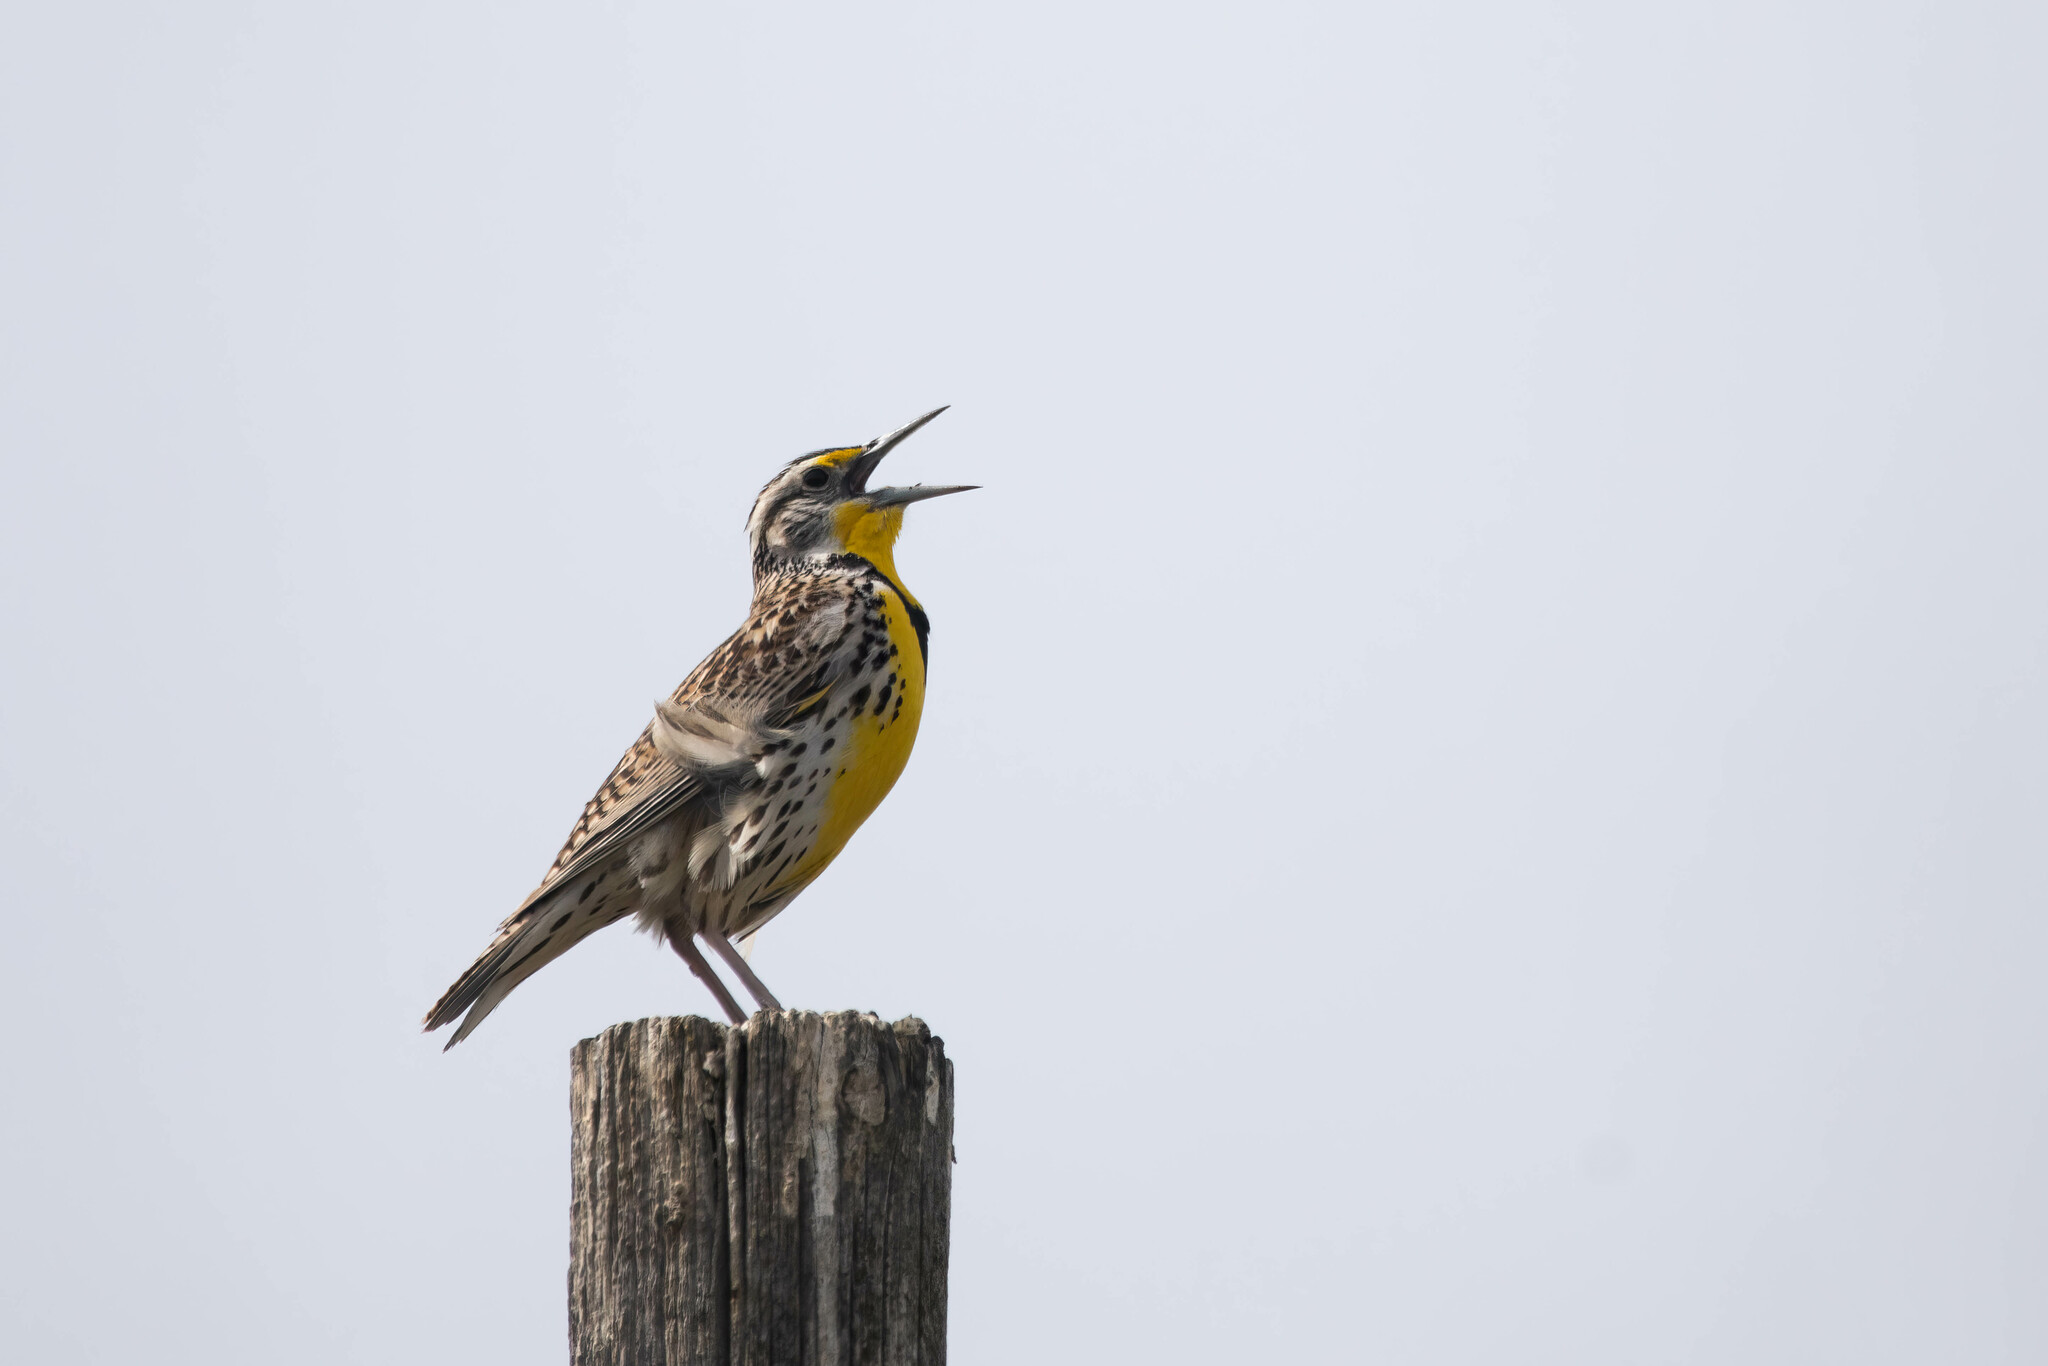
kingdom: Animalia
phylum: Chordata
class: Aves
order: Passeriformes
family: Icteridae
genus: Sturnella
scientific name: Sturnella neglecta
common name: Western meadowlark
